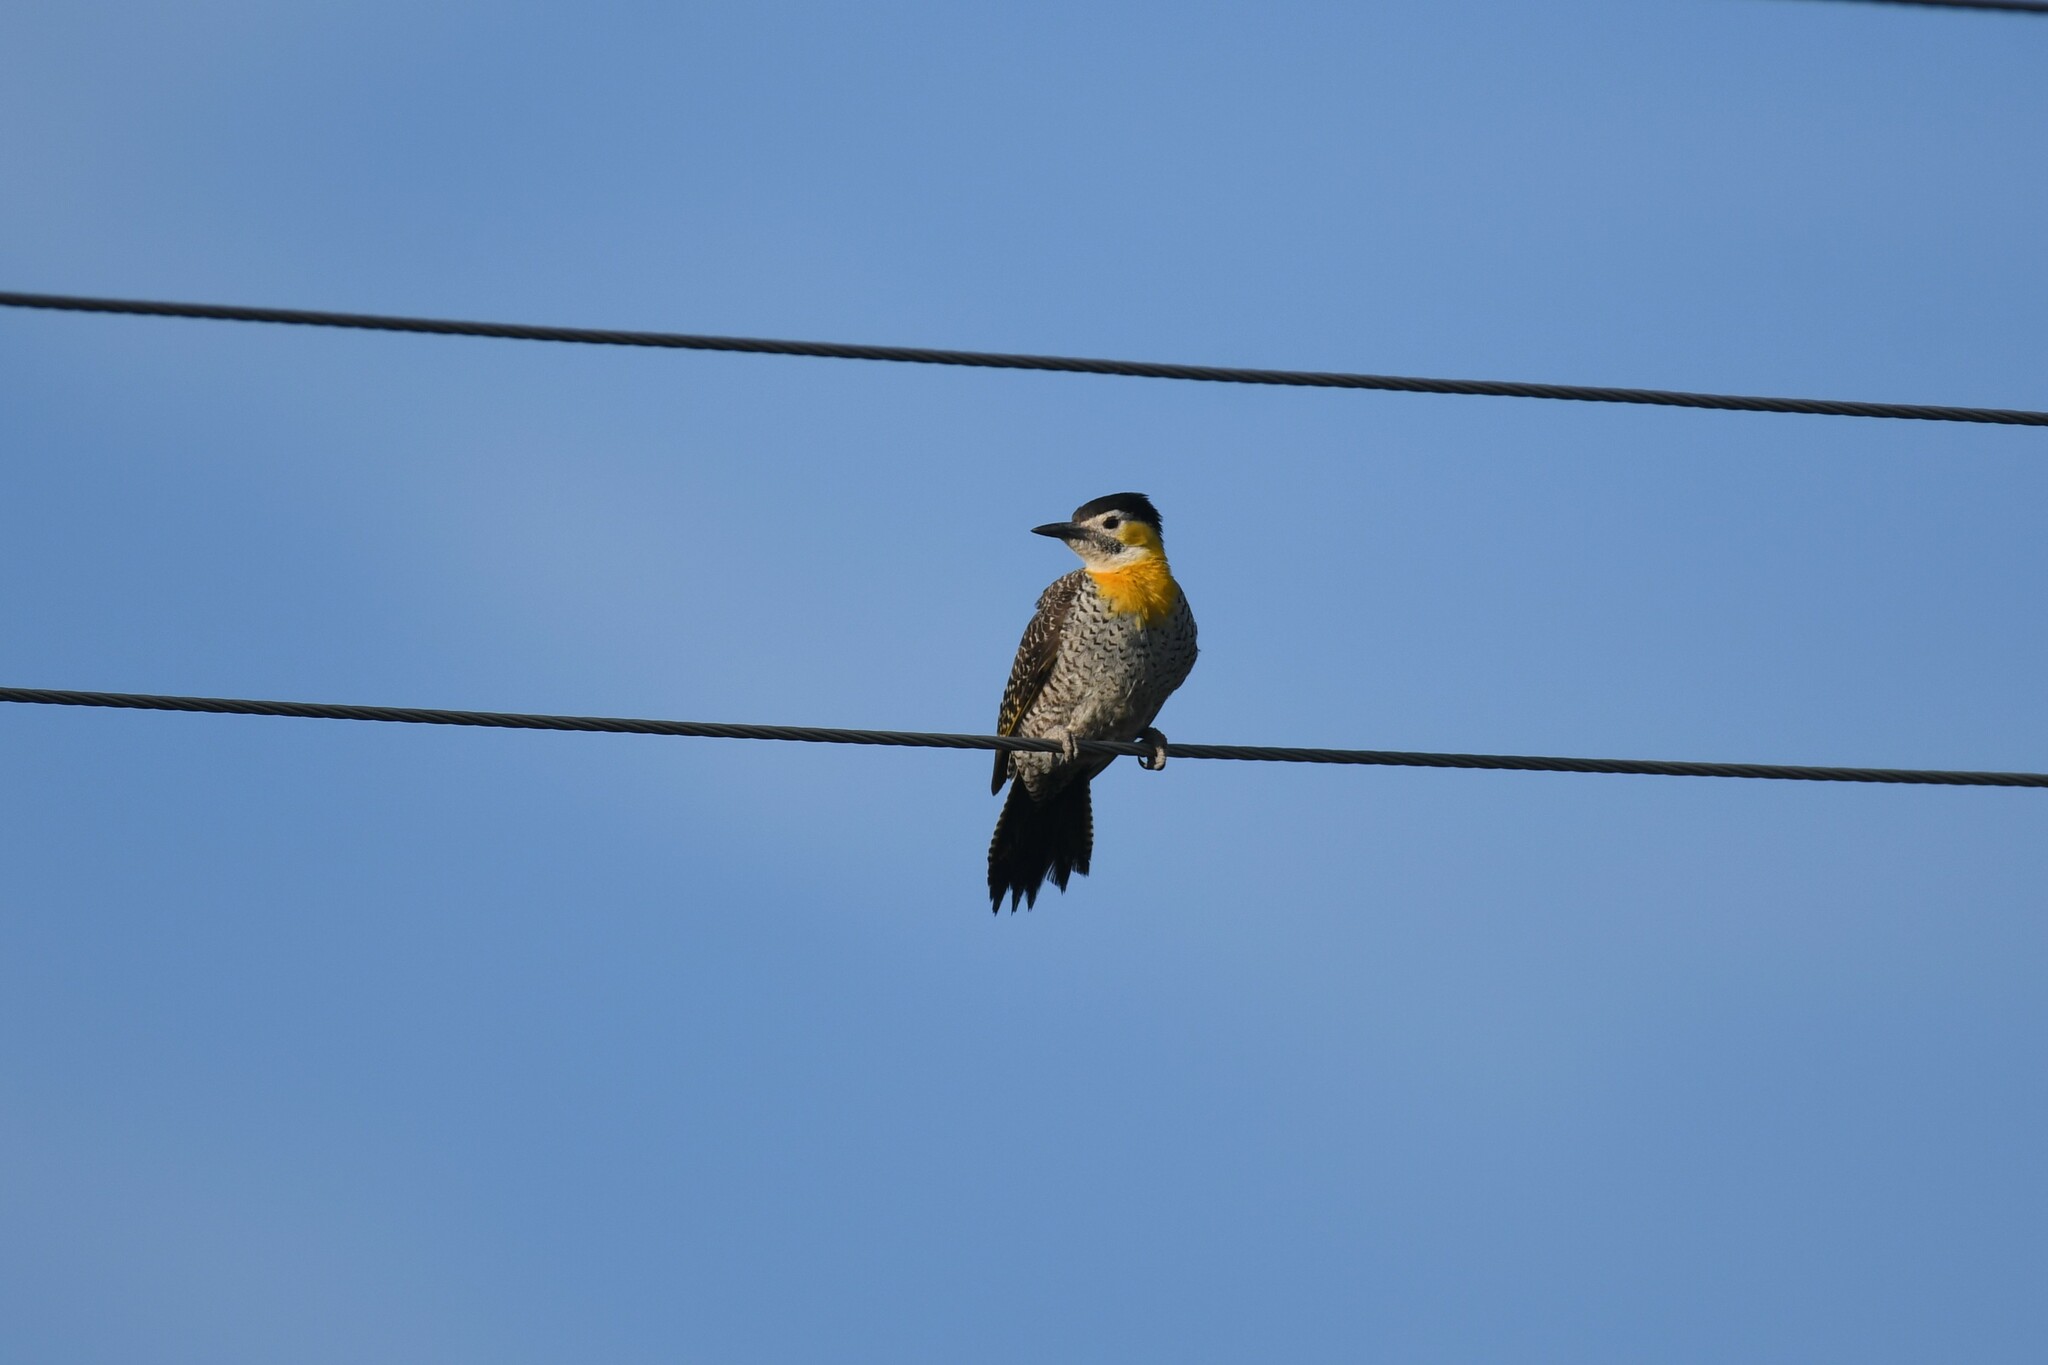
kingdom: Animalia
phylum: Chordata
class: Aves
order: Piciformes
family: Picidae
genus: Colaptes
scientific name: Colaptes campestris
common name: Campo flicker
